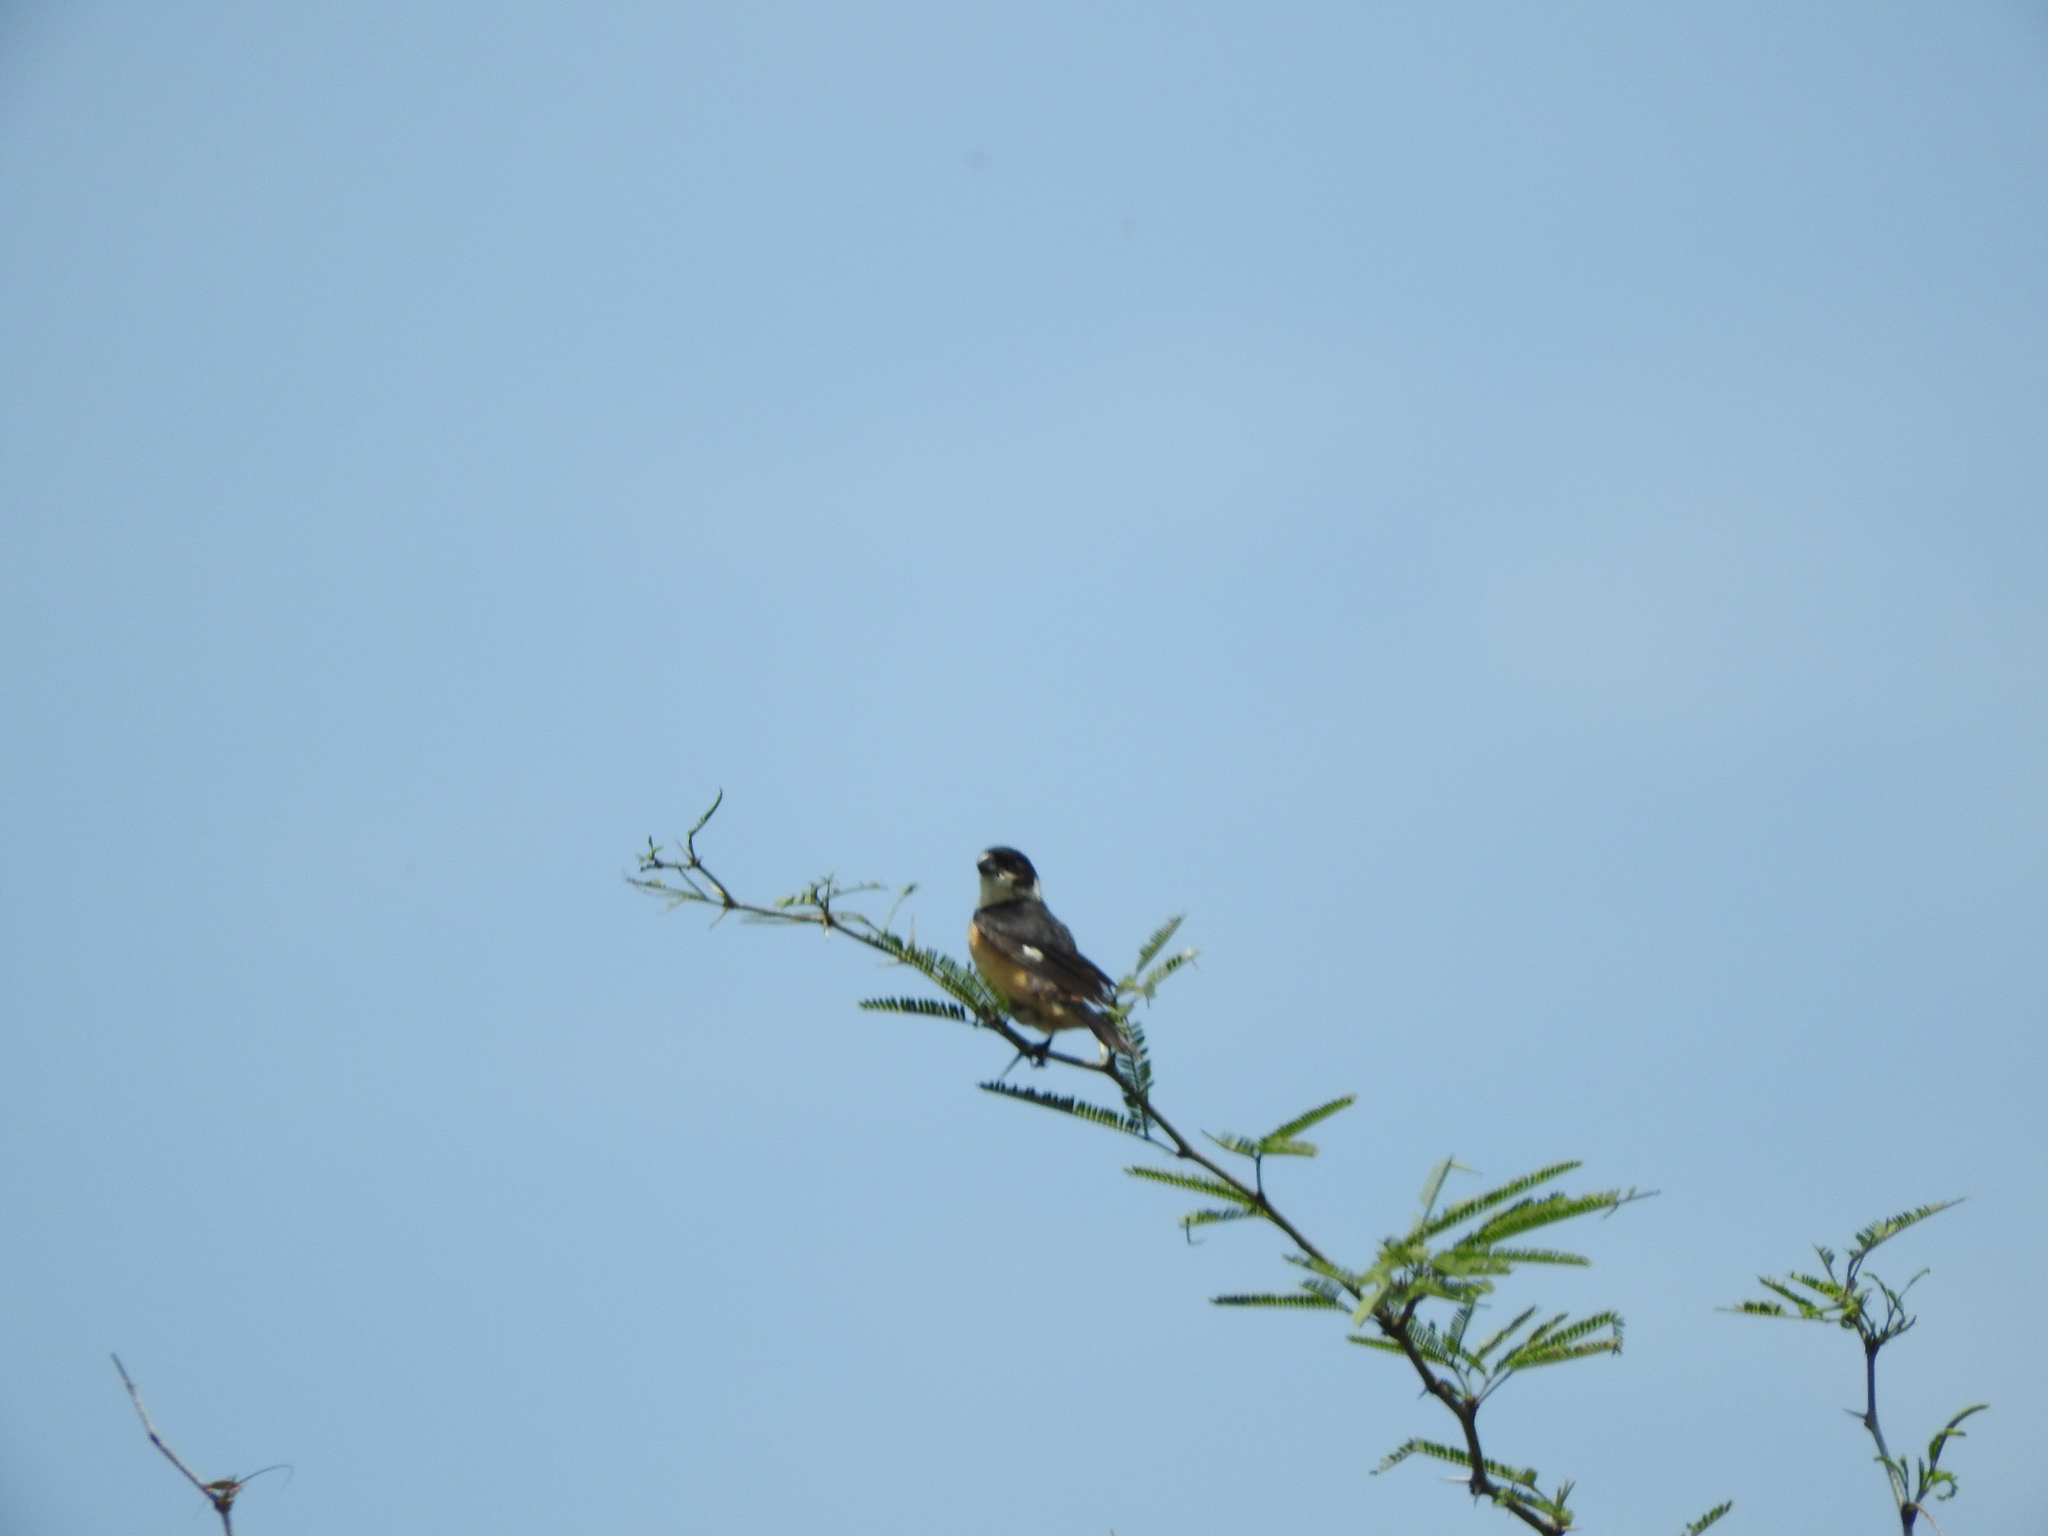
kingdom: Animalia
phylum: Chordata
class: Aves
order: Passeriformes
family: Thraupidae
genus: Sporophila
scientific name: Sporophila torqueola
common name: White-collared seedeater
